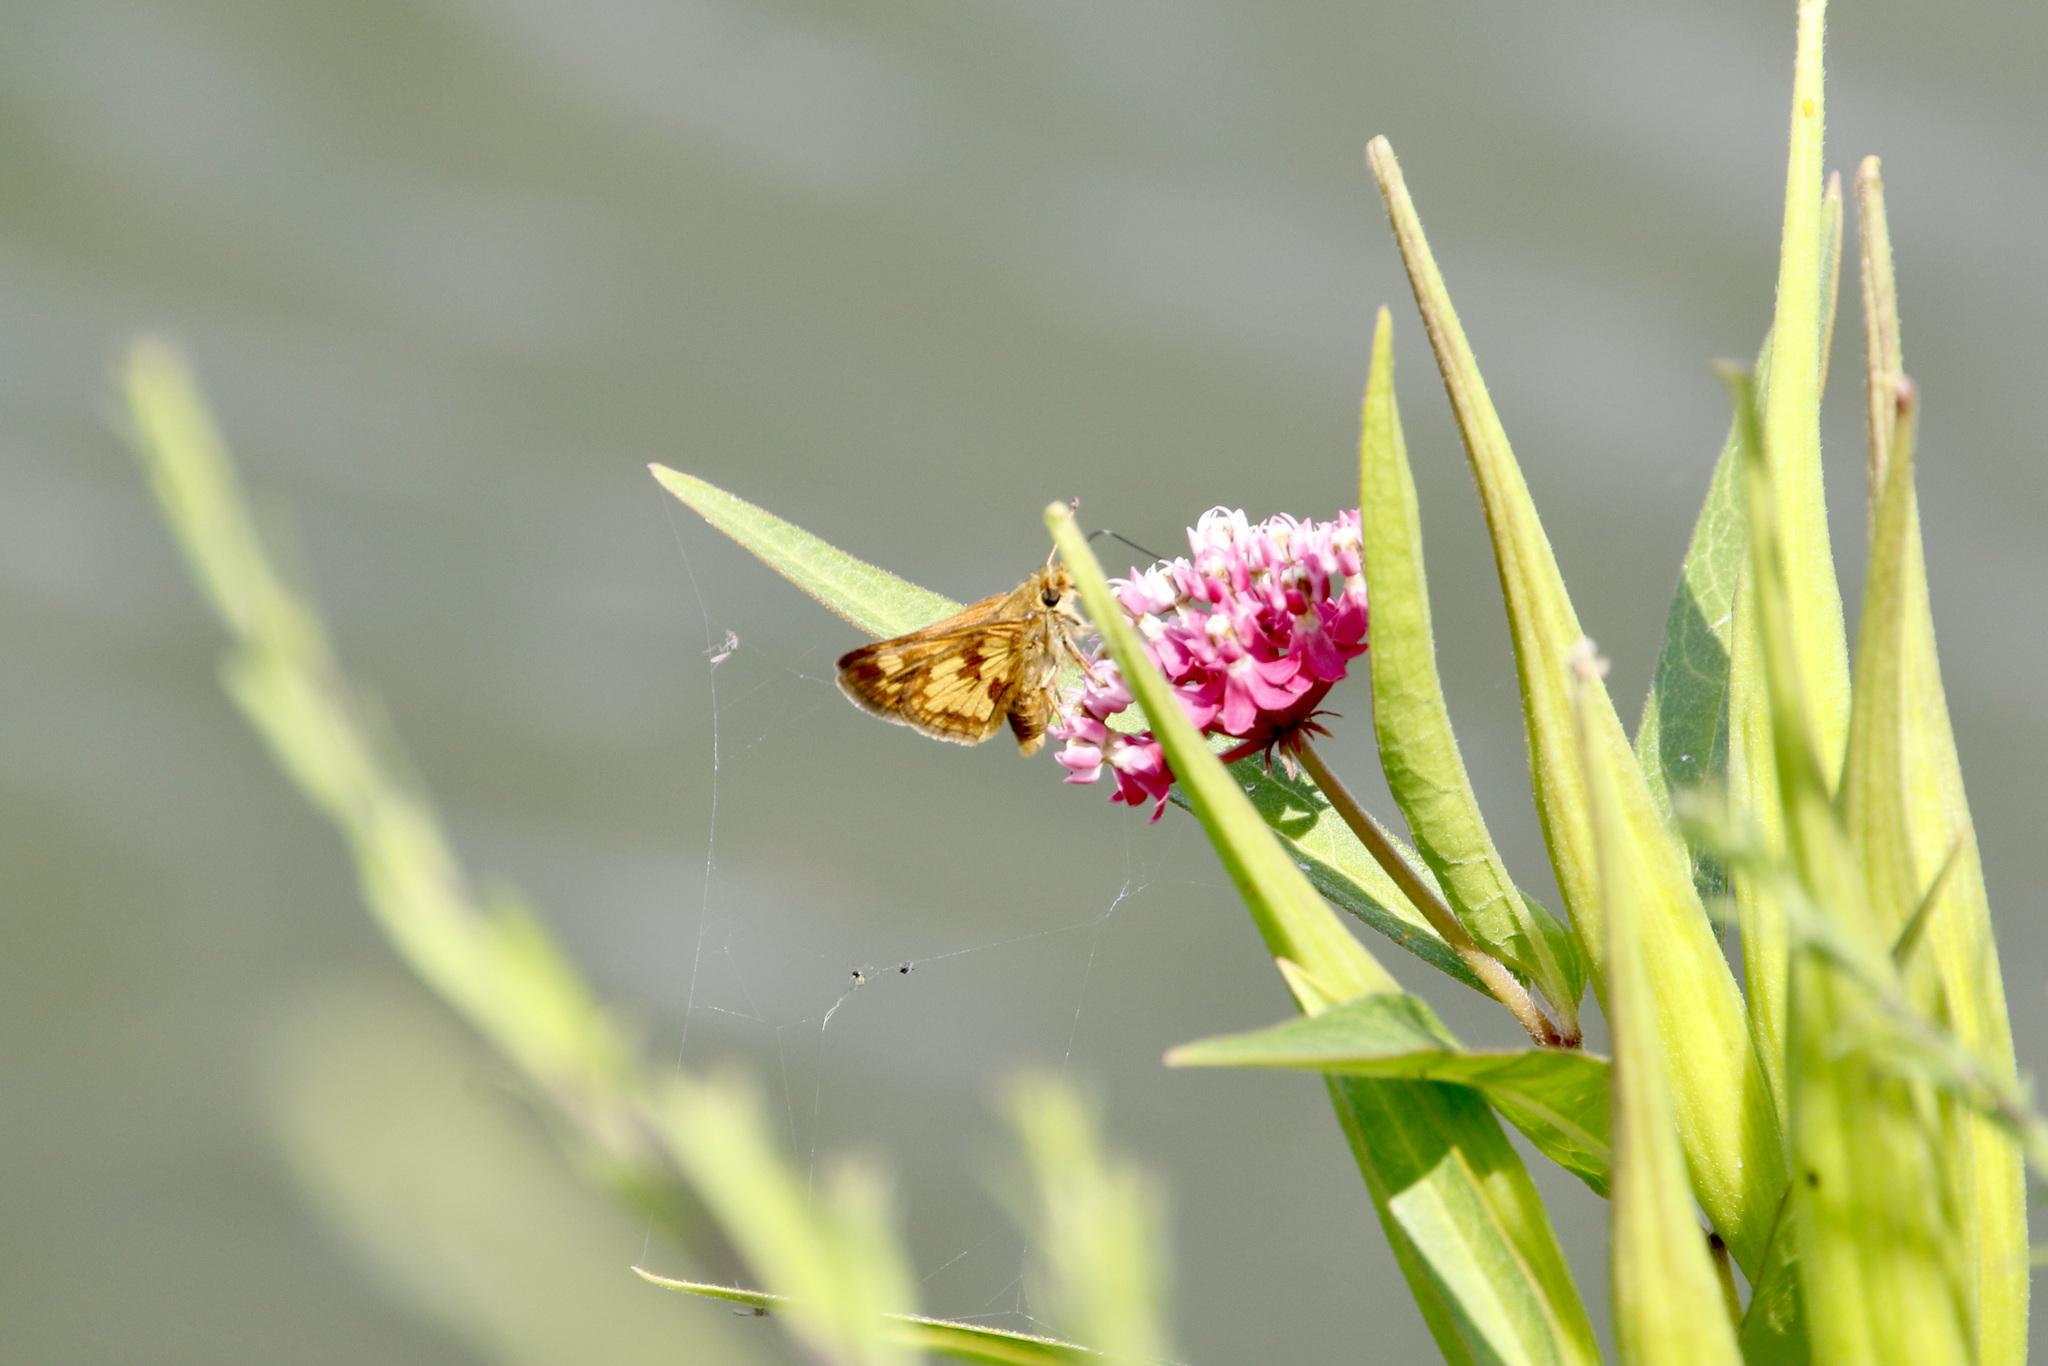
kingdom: Animalia
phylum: Arthropoda
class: Insecta
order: Lepidoptera
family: Hesperiidae
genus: Polites
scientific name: Polites coras
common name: Peck's skipper
